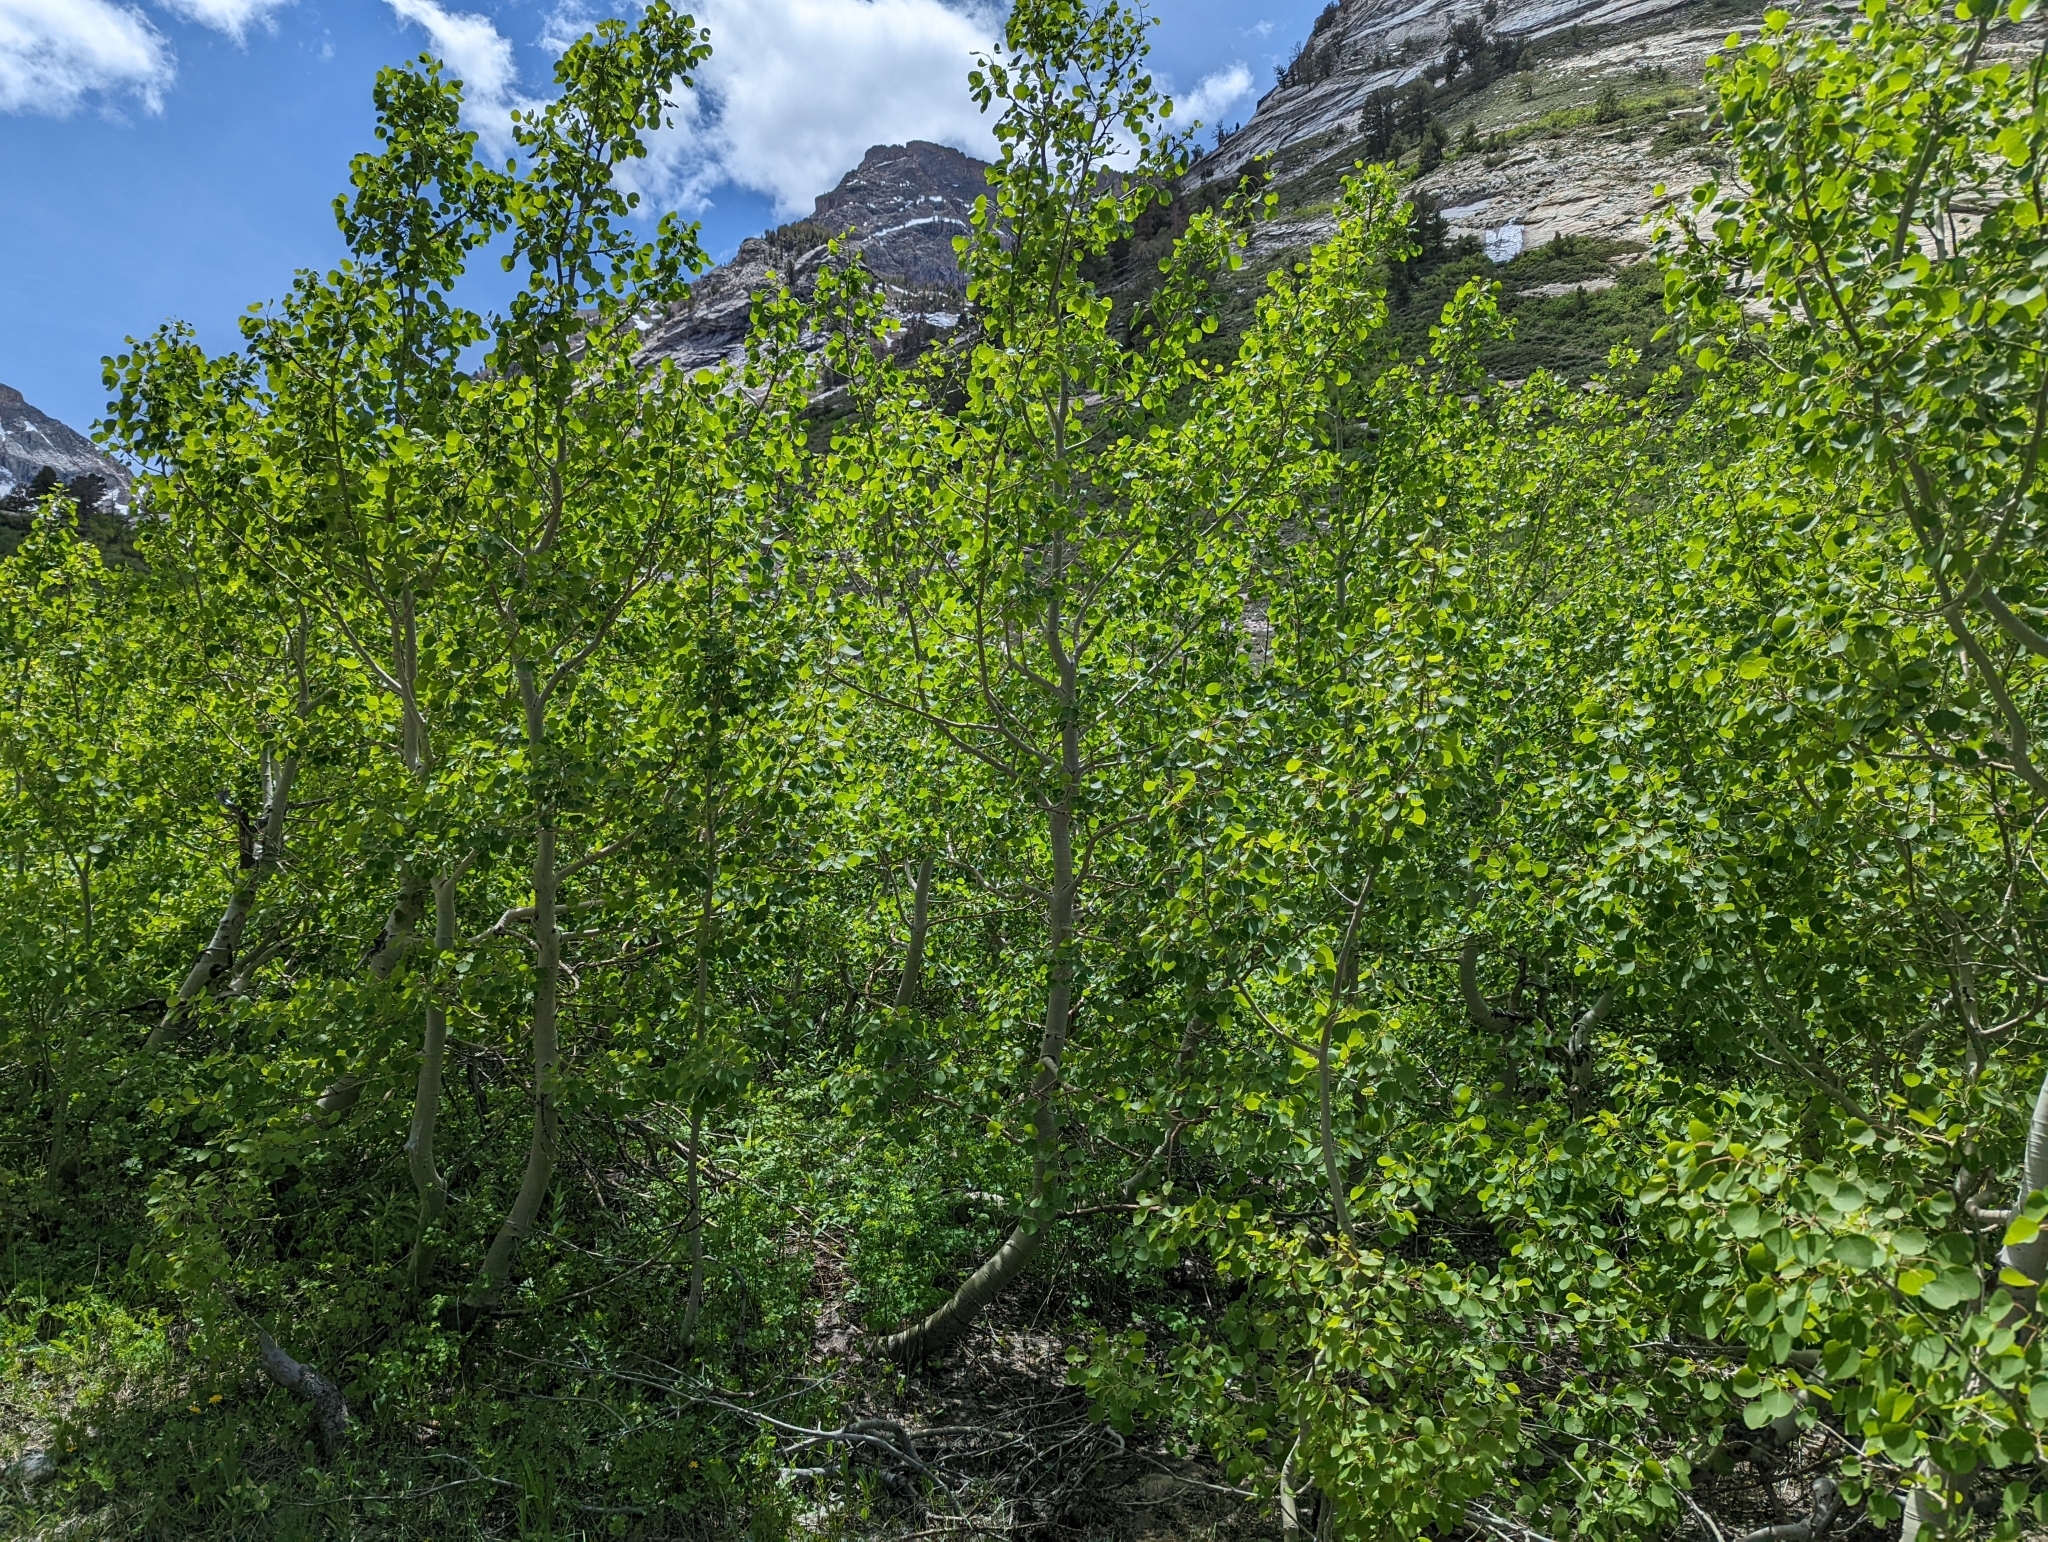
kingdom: Plantae
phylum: Tracheophyta
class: Magnoliopsida
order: Malpighiales
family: Salicaceae
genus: Populus
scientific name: Populus tremuloides
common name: Quaking aspen
